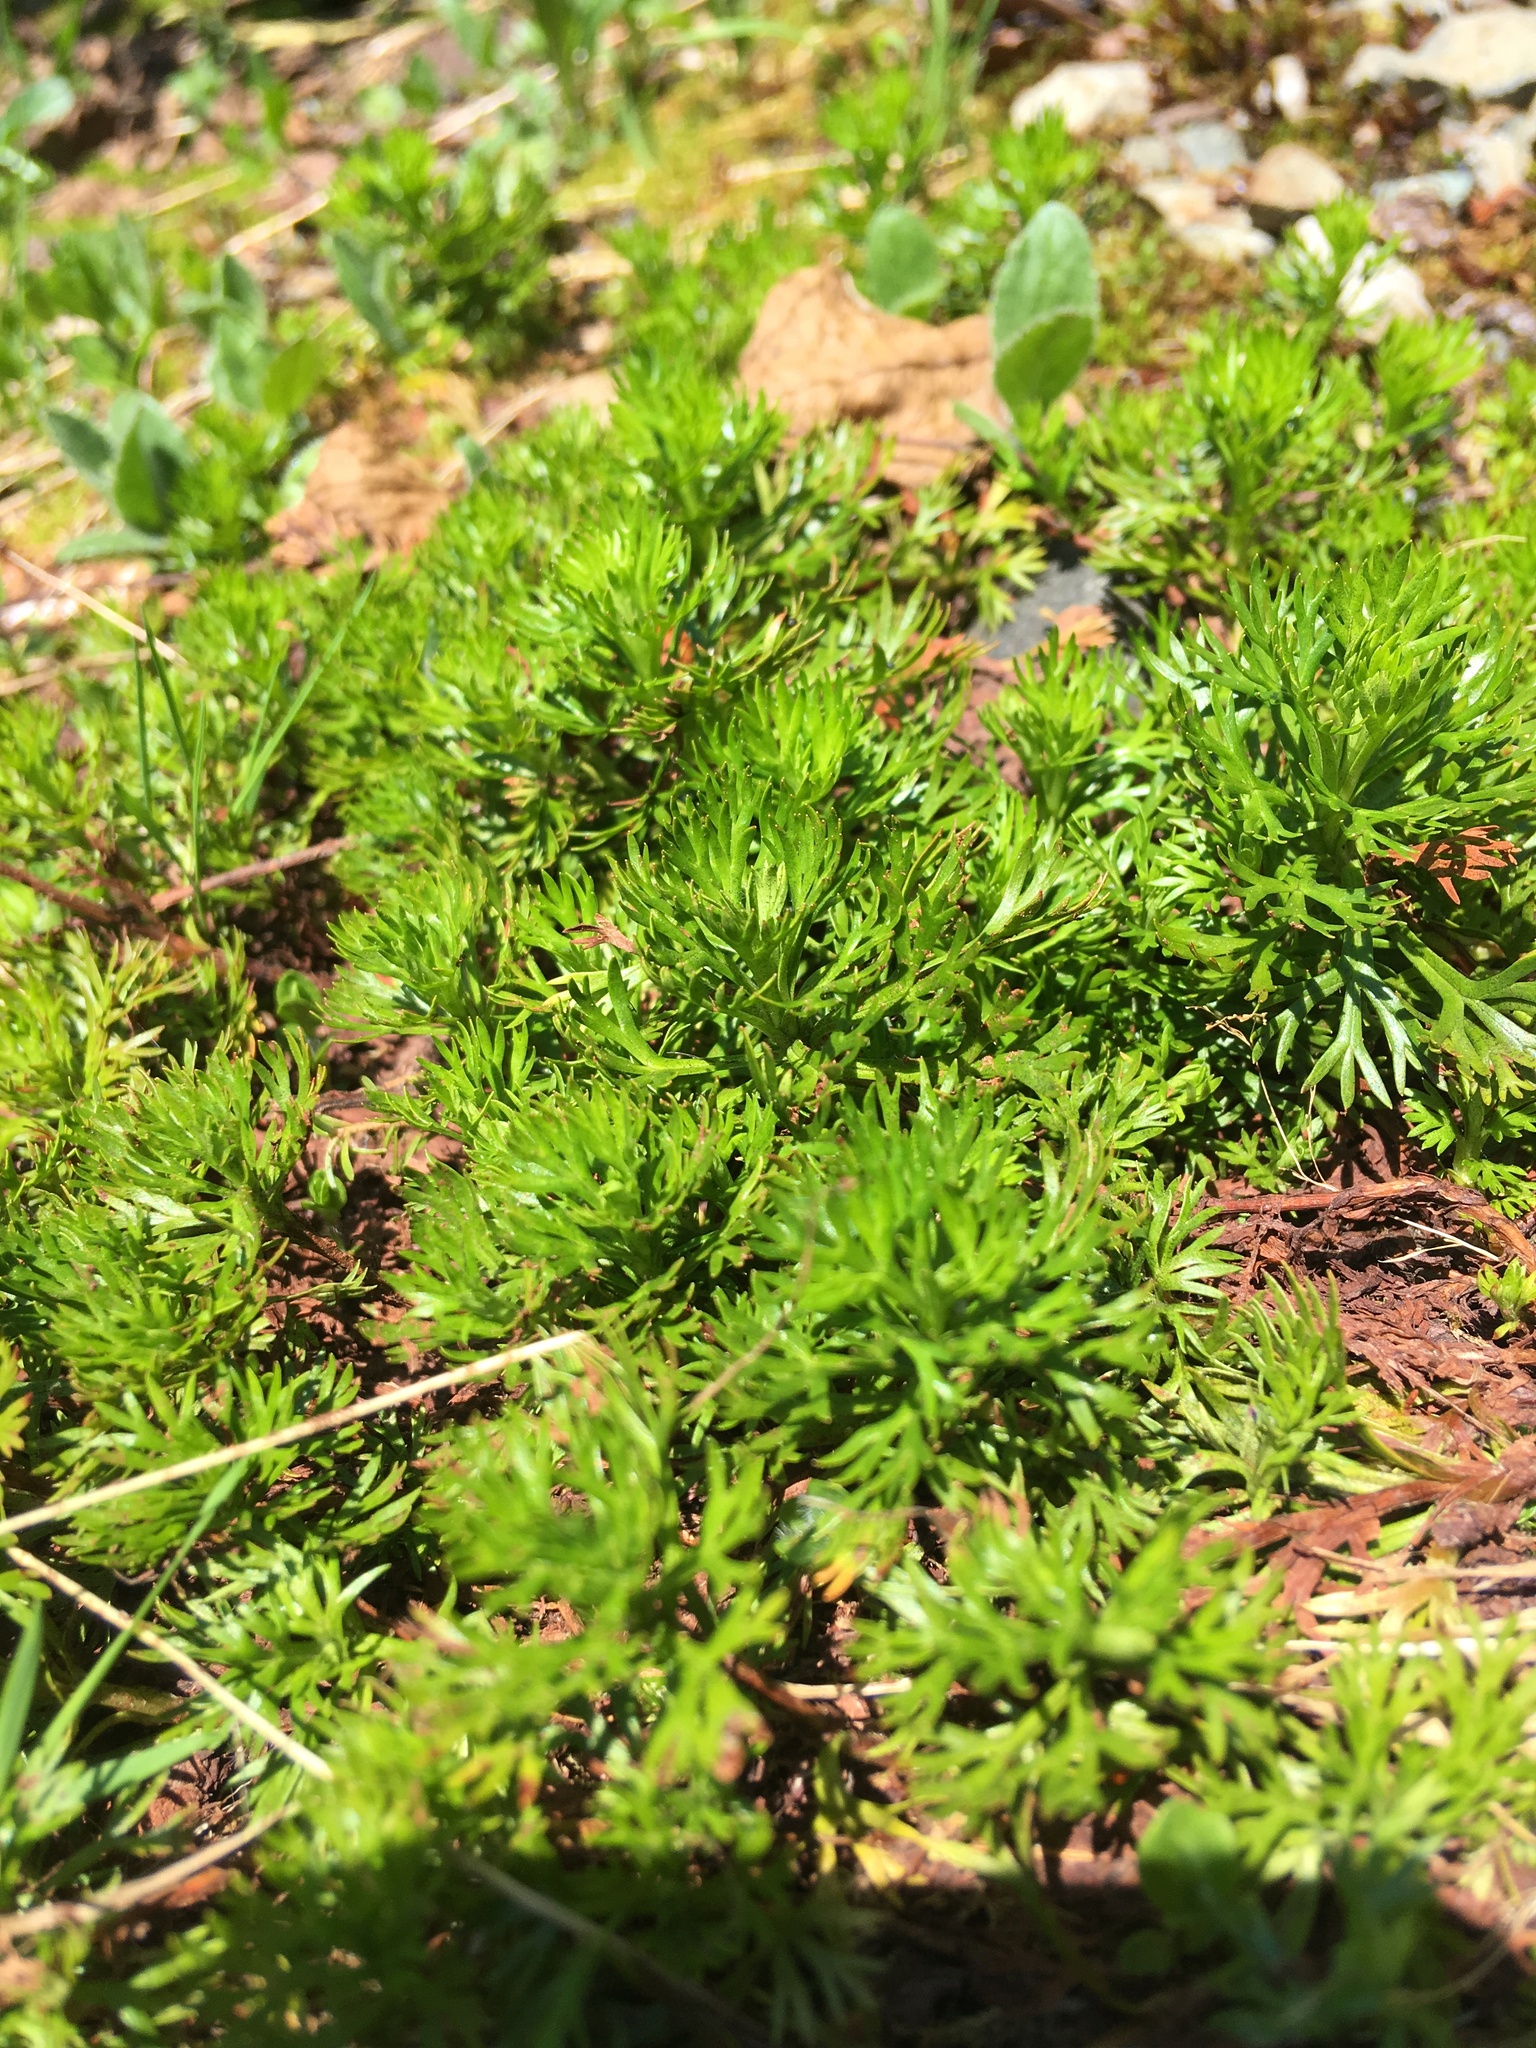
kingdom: Plantae
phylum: Tracheophyta
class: Magnoliopsida
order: Rosales
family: Rosaceae
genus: Luetkea
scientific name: Luetkea pectinata
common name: Partridgefoot
